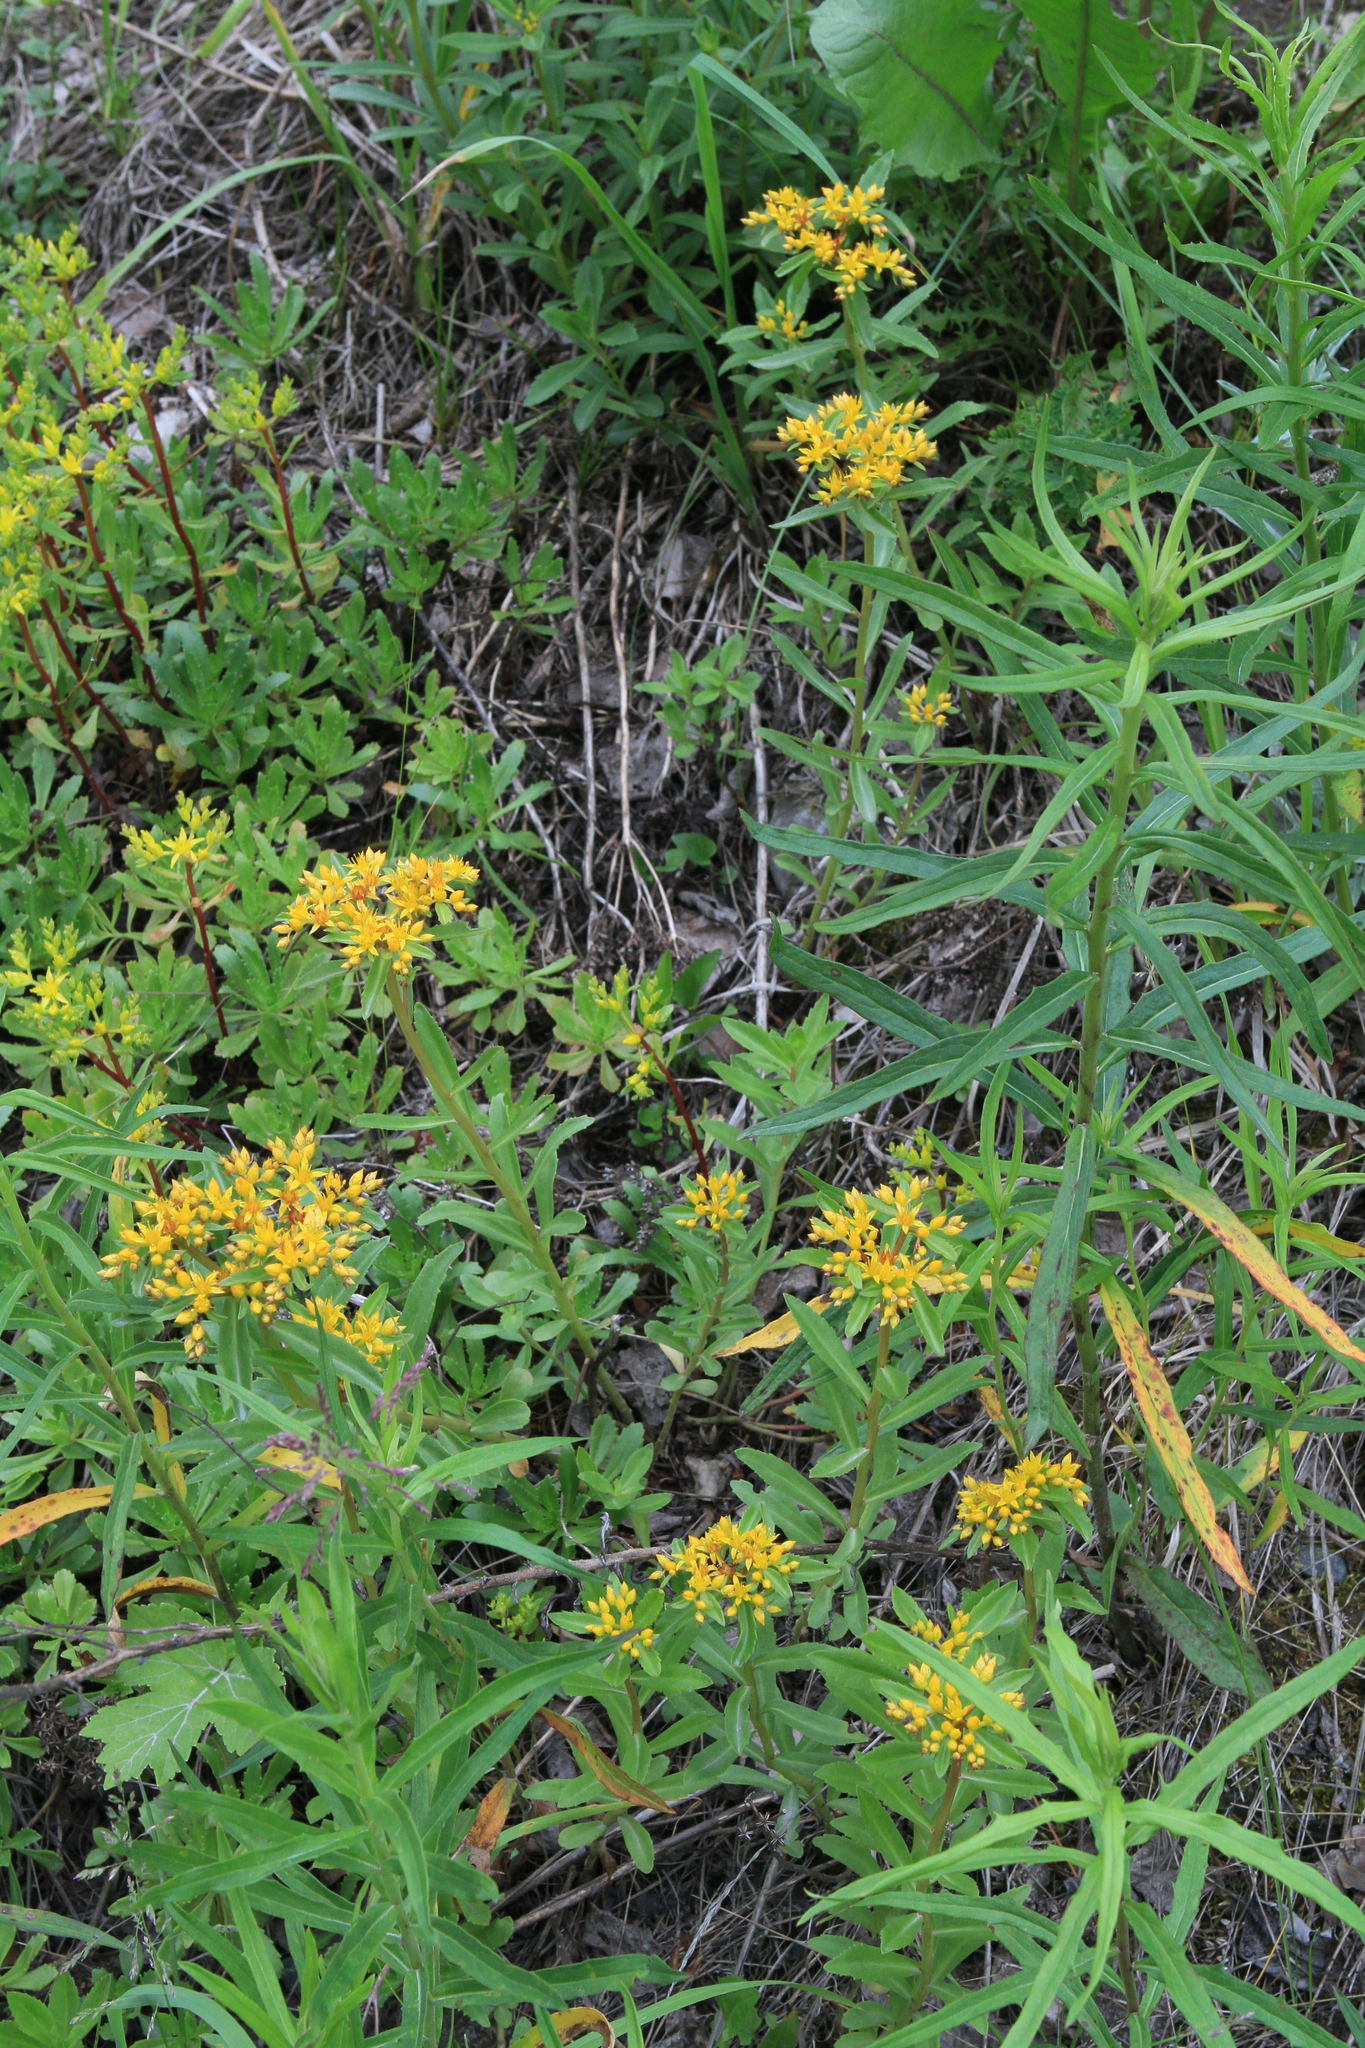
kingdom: Plantae
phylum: Tracheophyta
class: Magnoliopsida
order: Saxifragales
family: Crassulaceae
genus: Phedimus
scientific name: Phedimus aizoon
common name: Orpin aizoon
